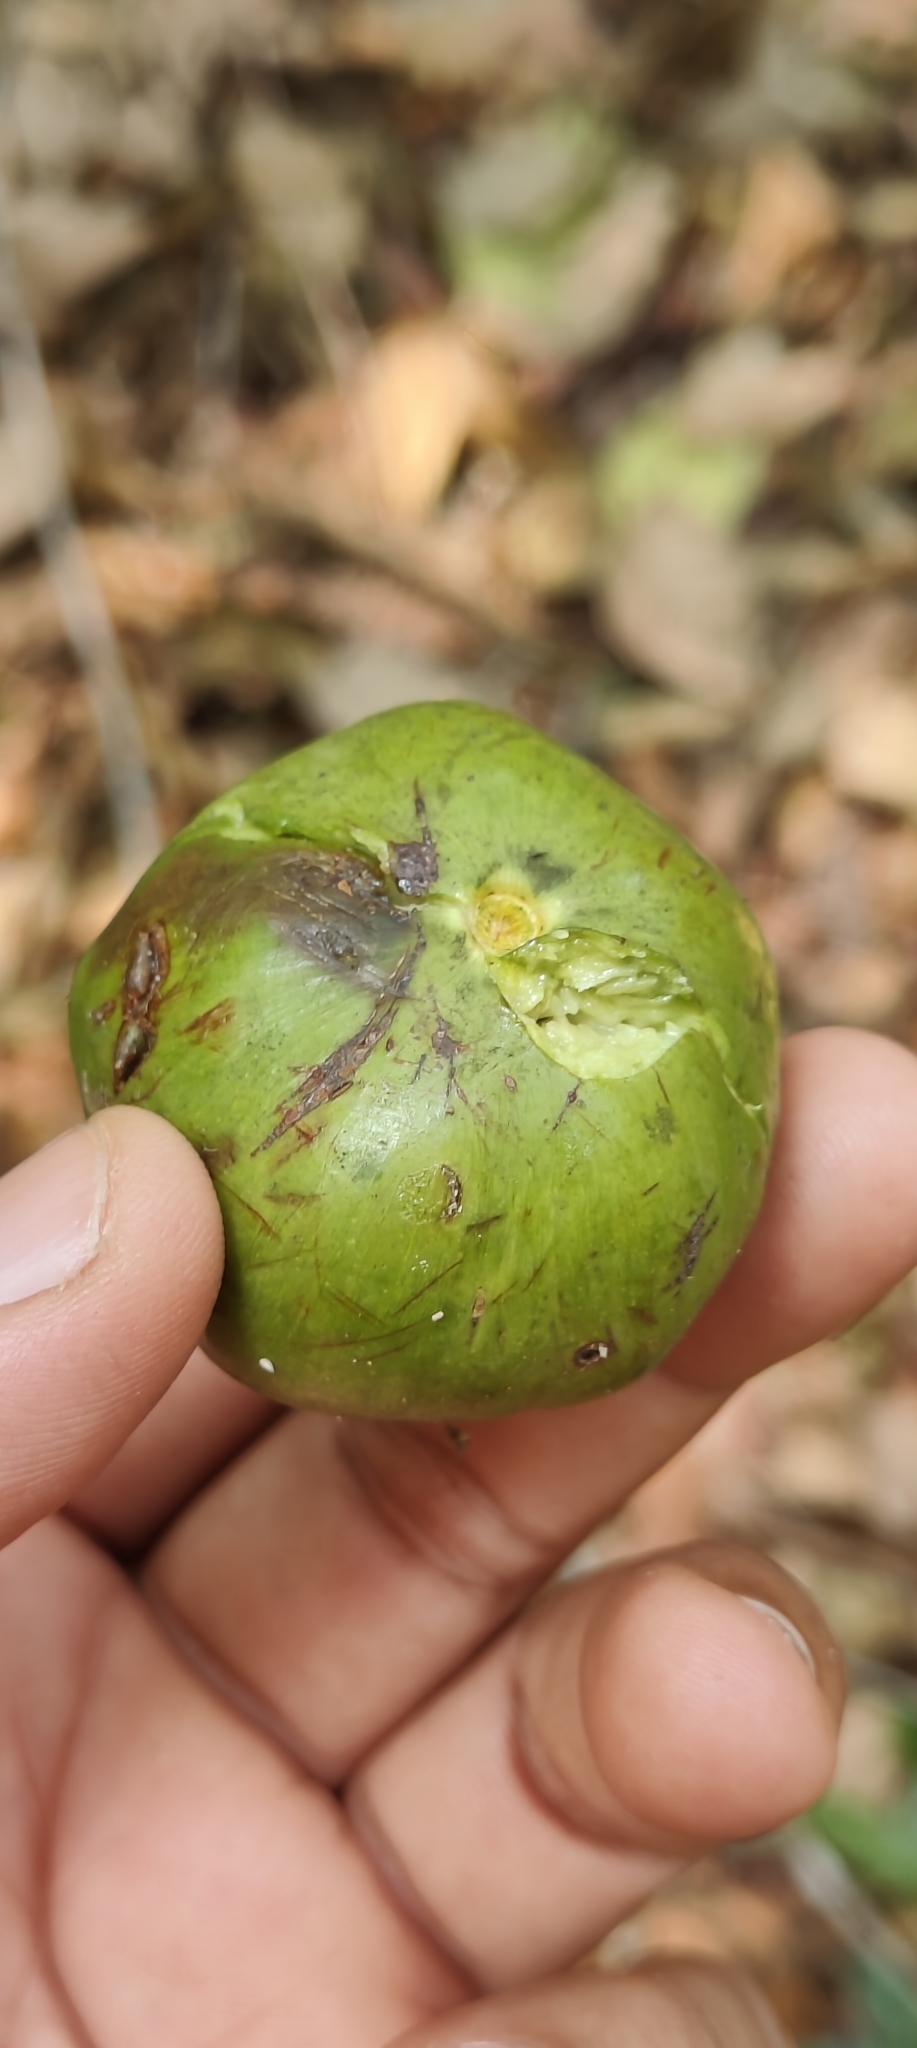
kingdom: Plantae
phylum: Tracheophyta
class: Magnoliopsida
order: Ericales
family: Sapotaceae
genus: Donella
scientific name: Donella lanceolata
